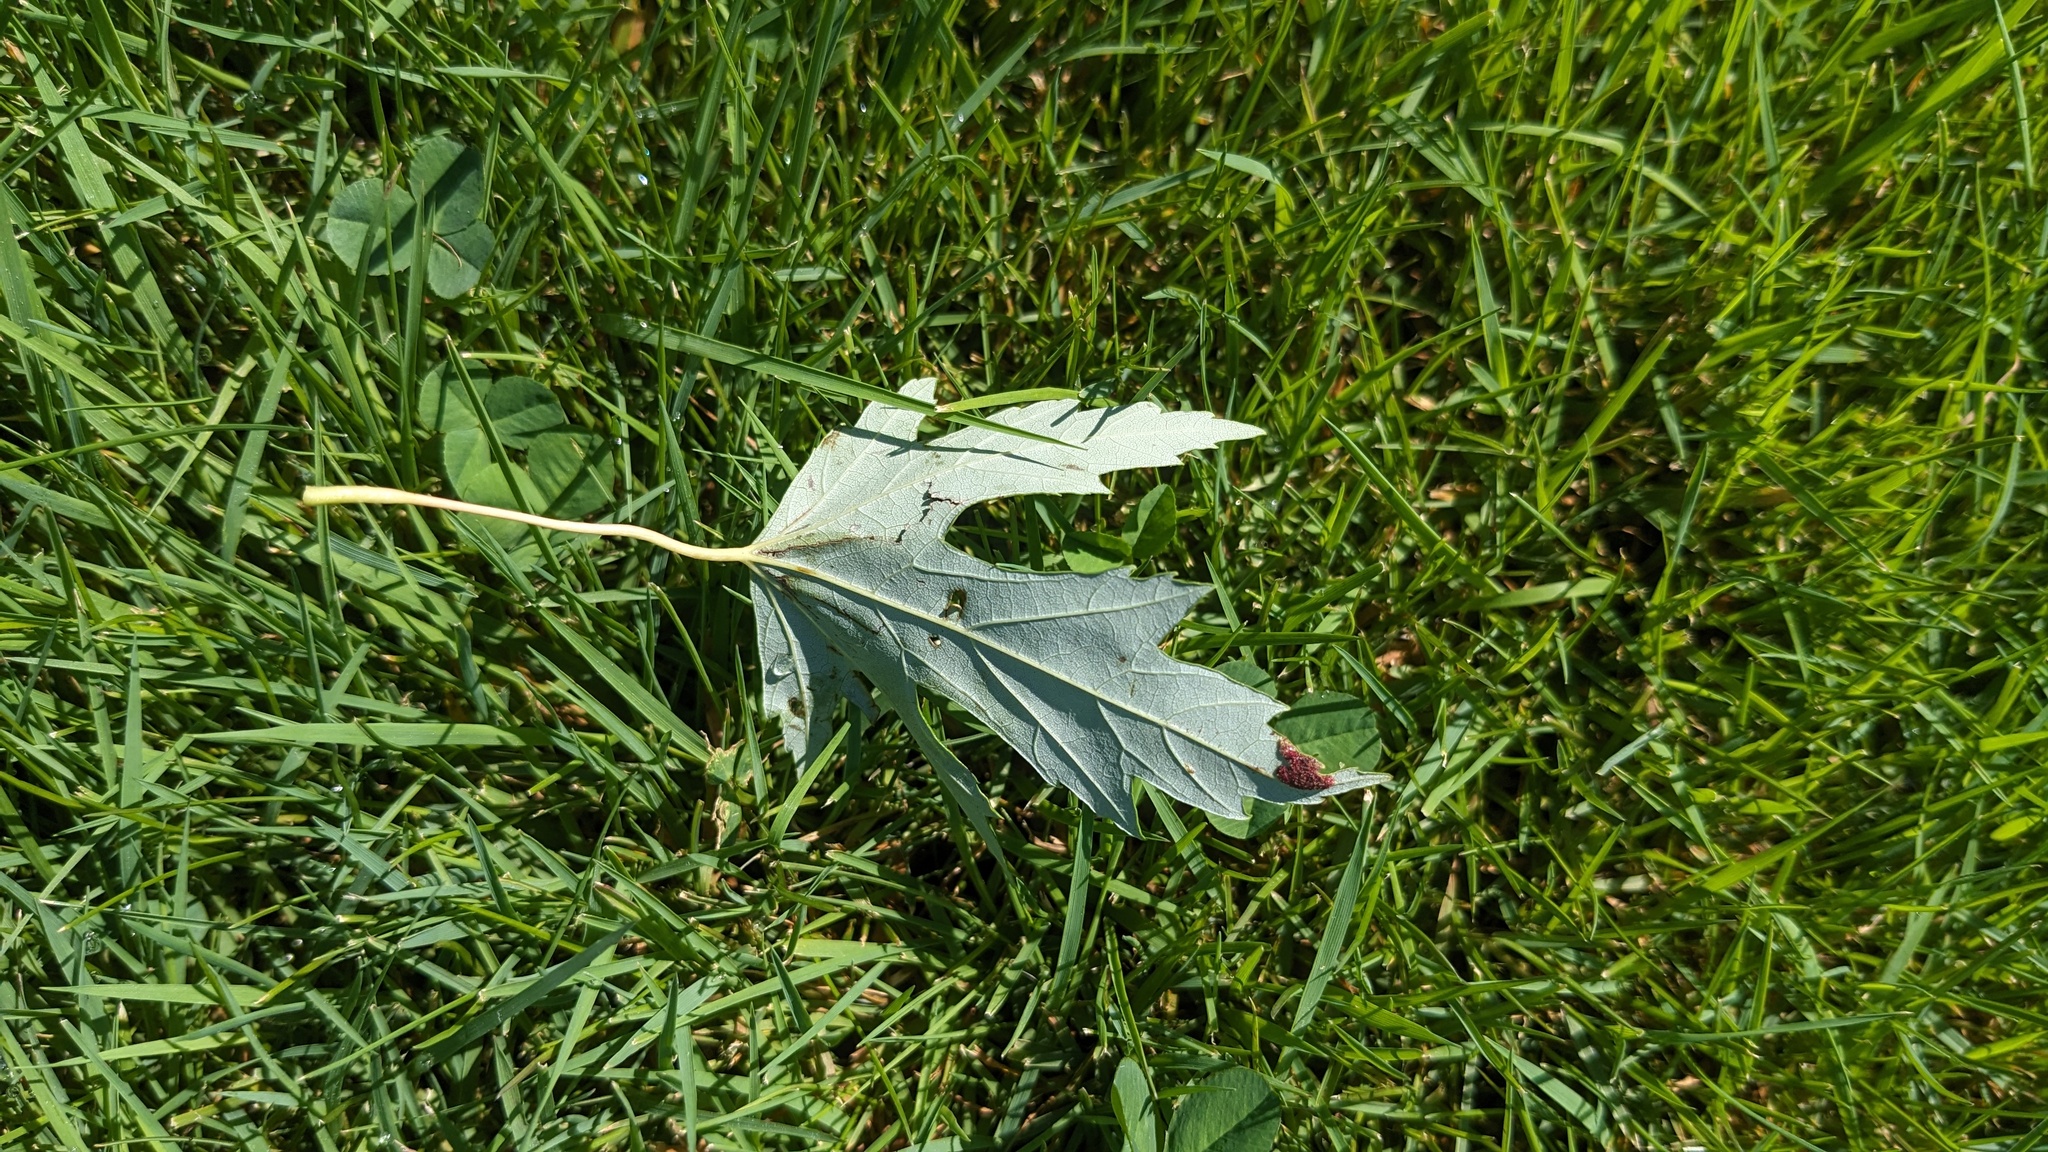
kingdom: Animalia
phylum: Arthropoda
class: Arachnida
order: Trombidiformes
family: Eriophyidae
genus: Eriophyes
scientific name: Eriophyes
